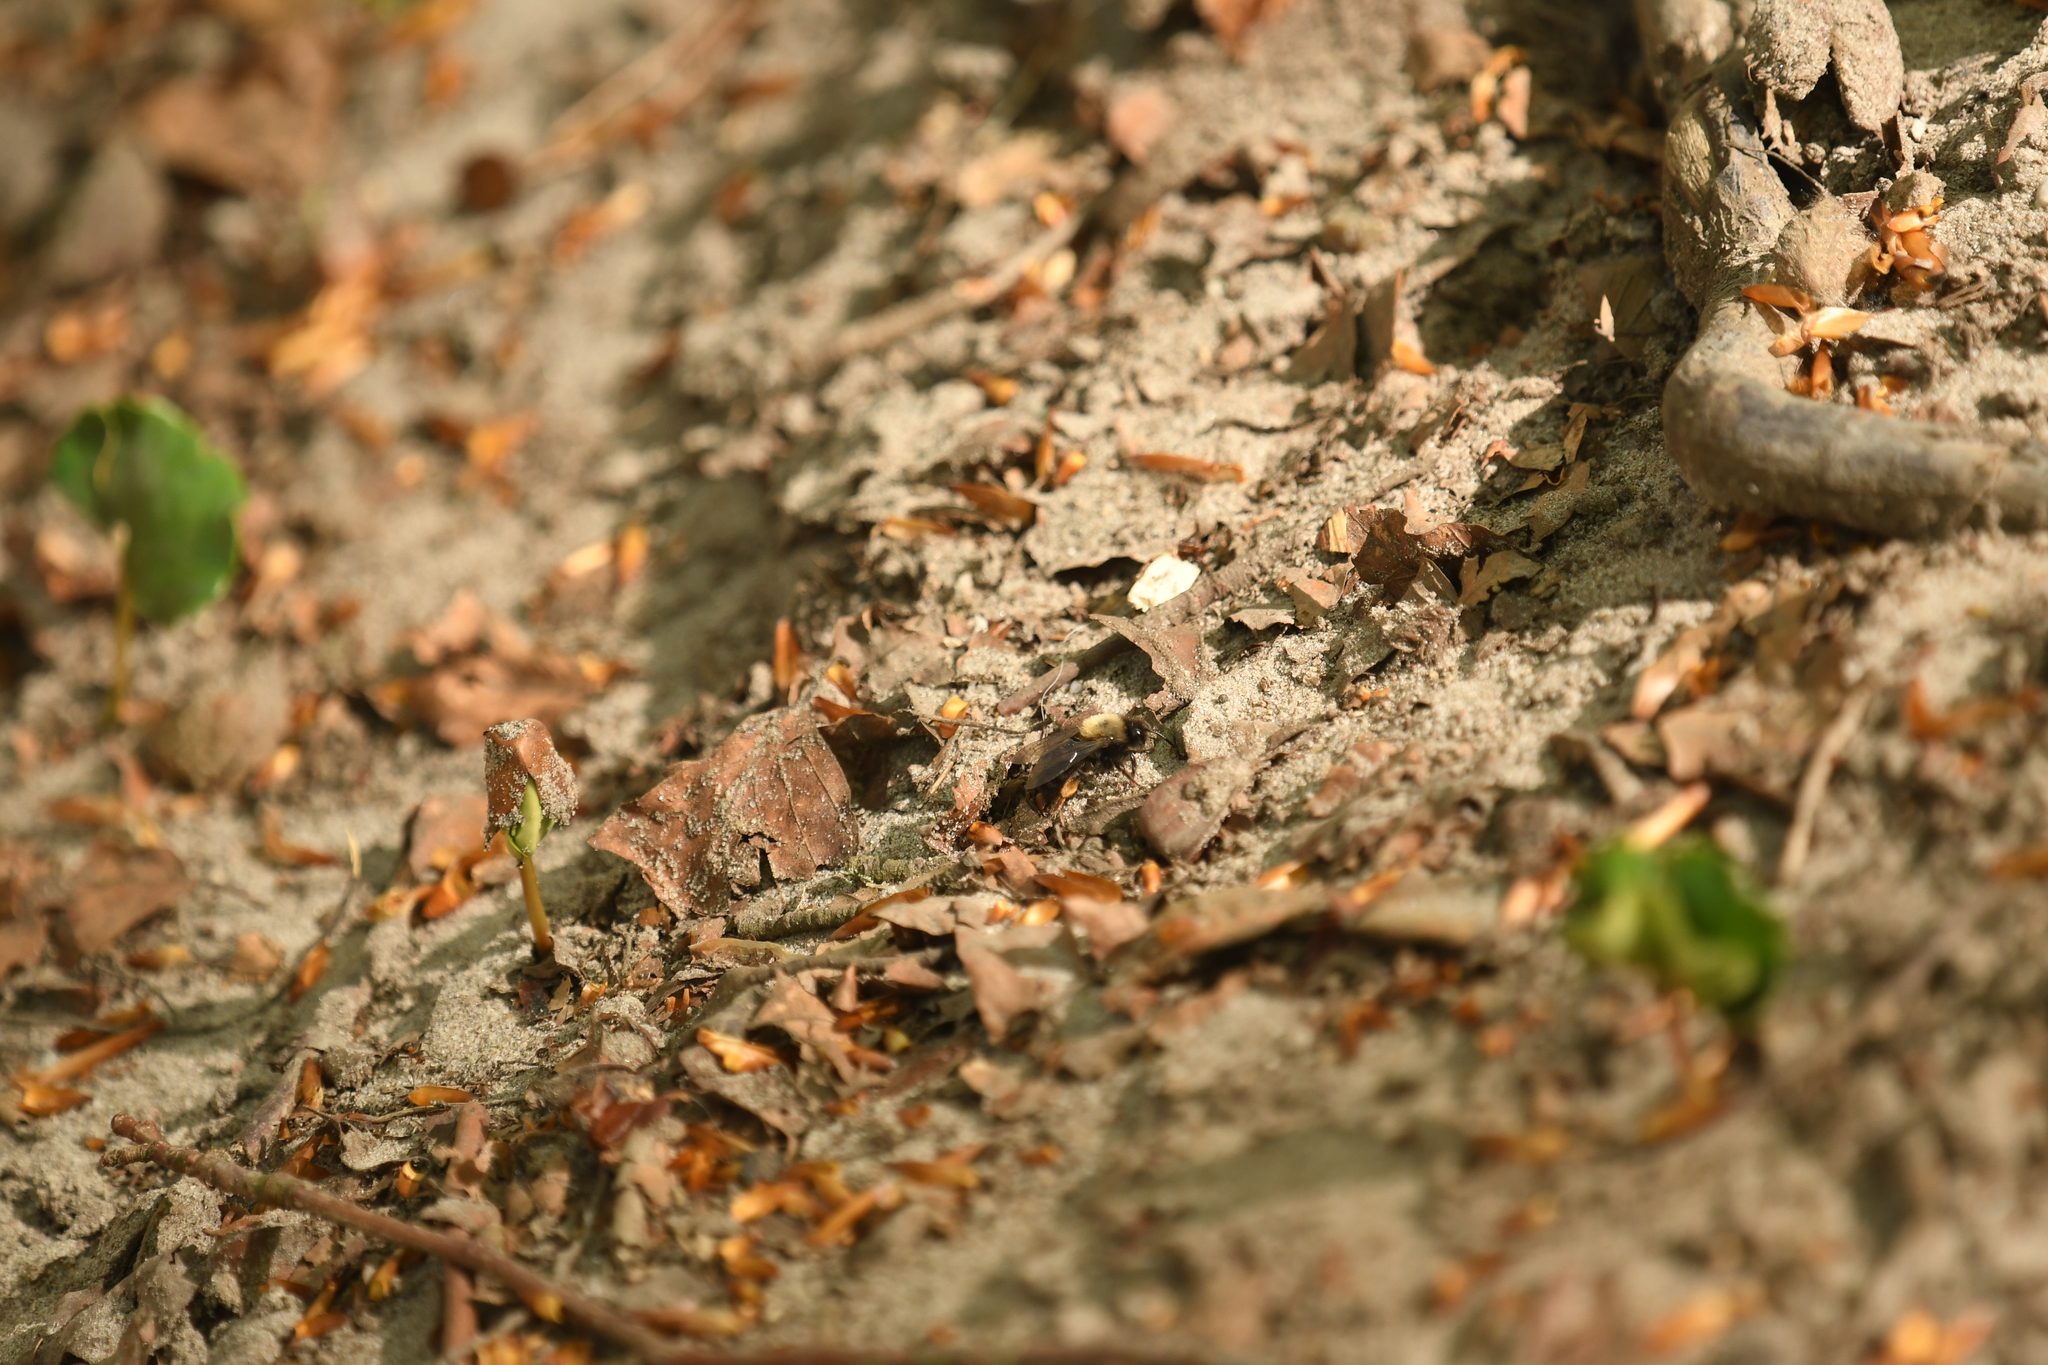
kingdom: Animalia
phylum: Arthropoda
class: Insecta
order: Hymenoptera
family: Andrenidae
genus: Andrena
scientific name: Andrena clarkella
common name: Clarke's mining bee
